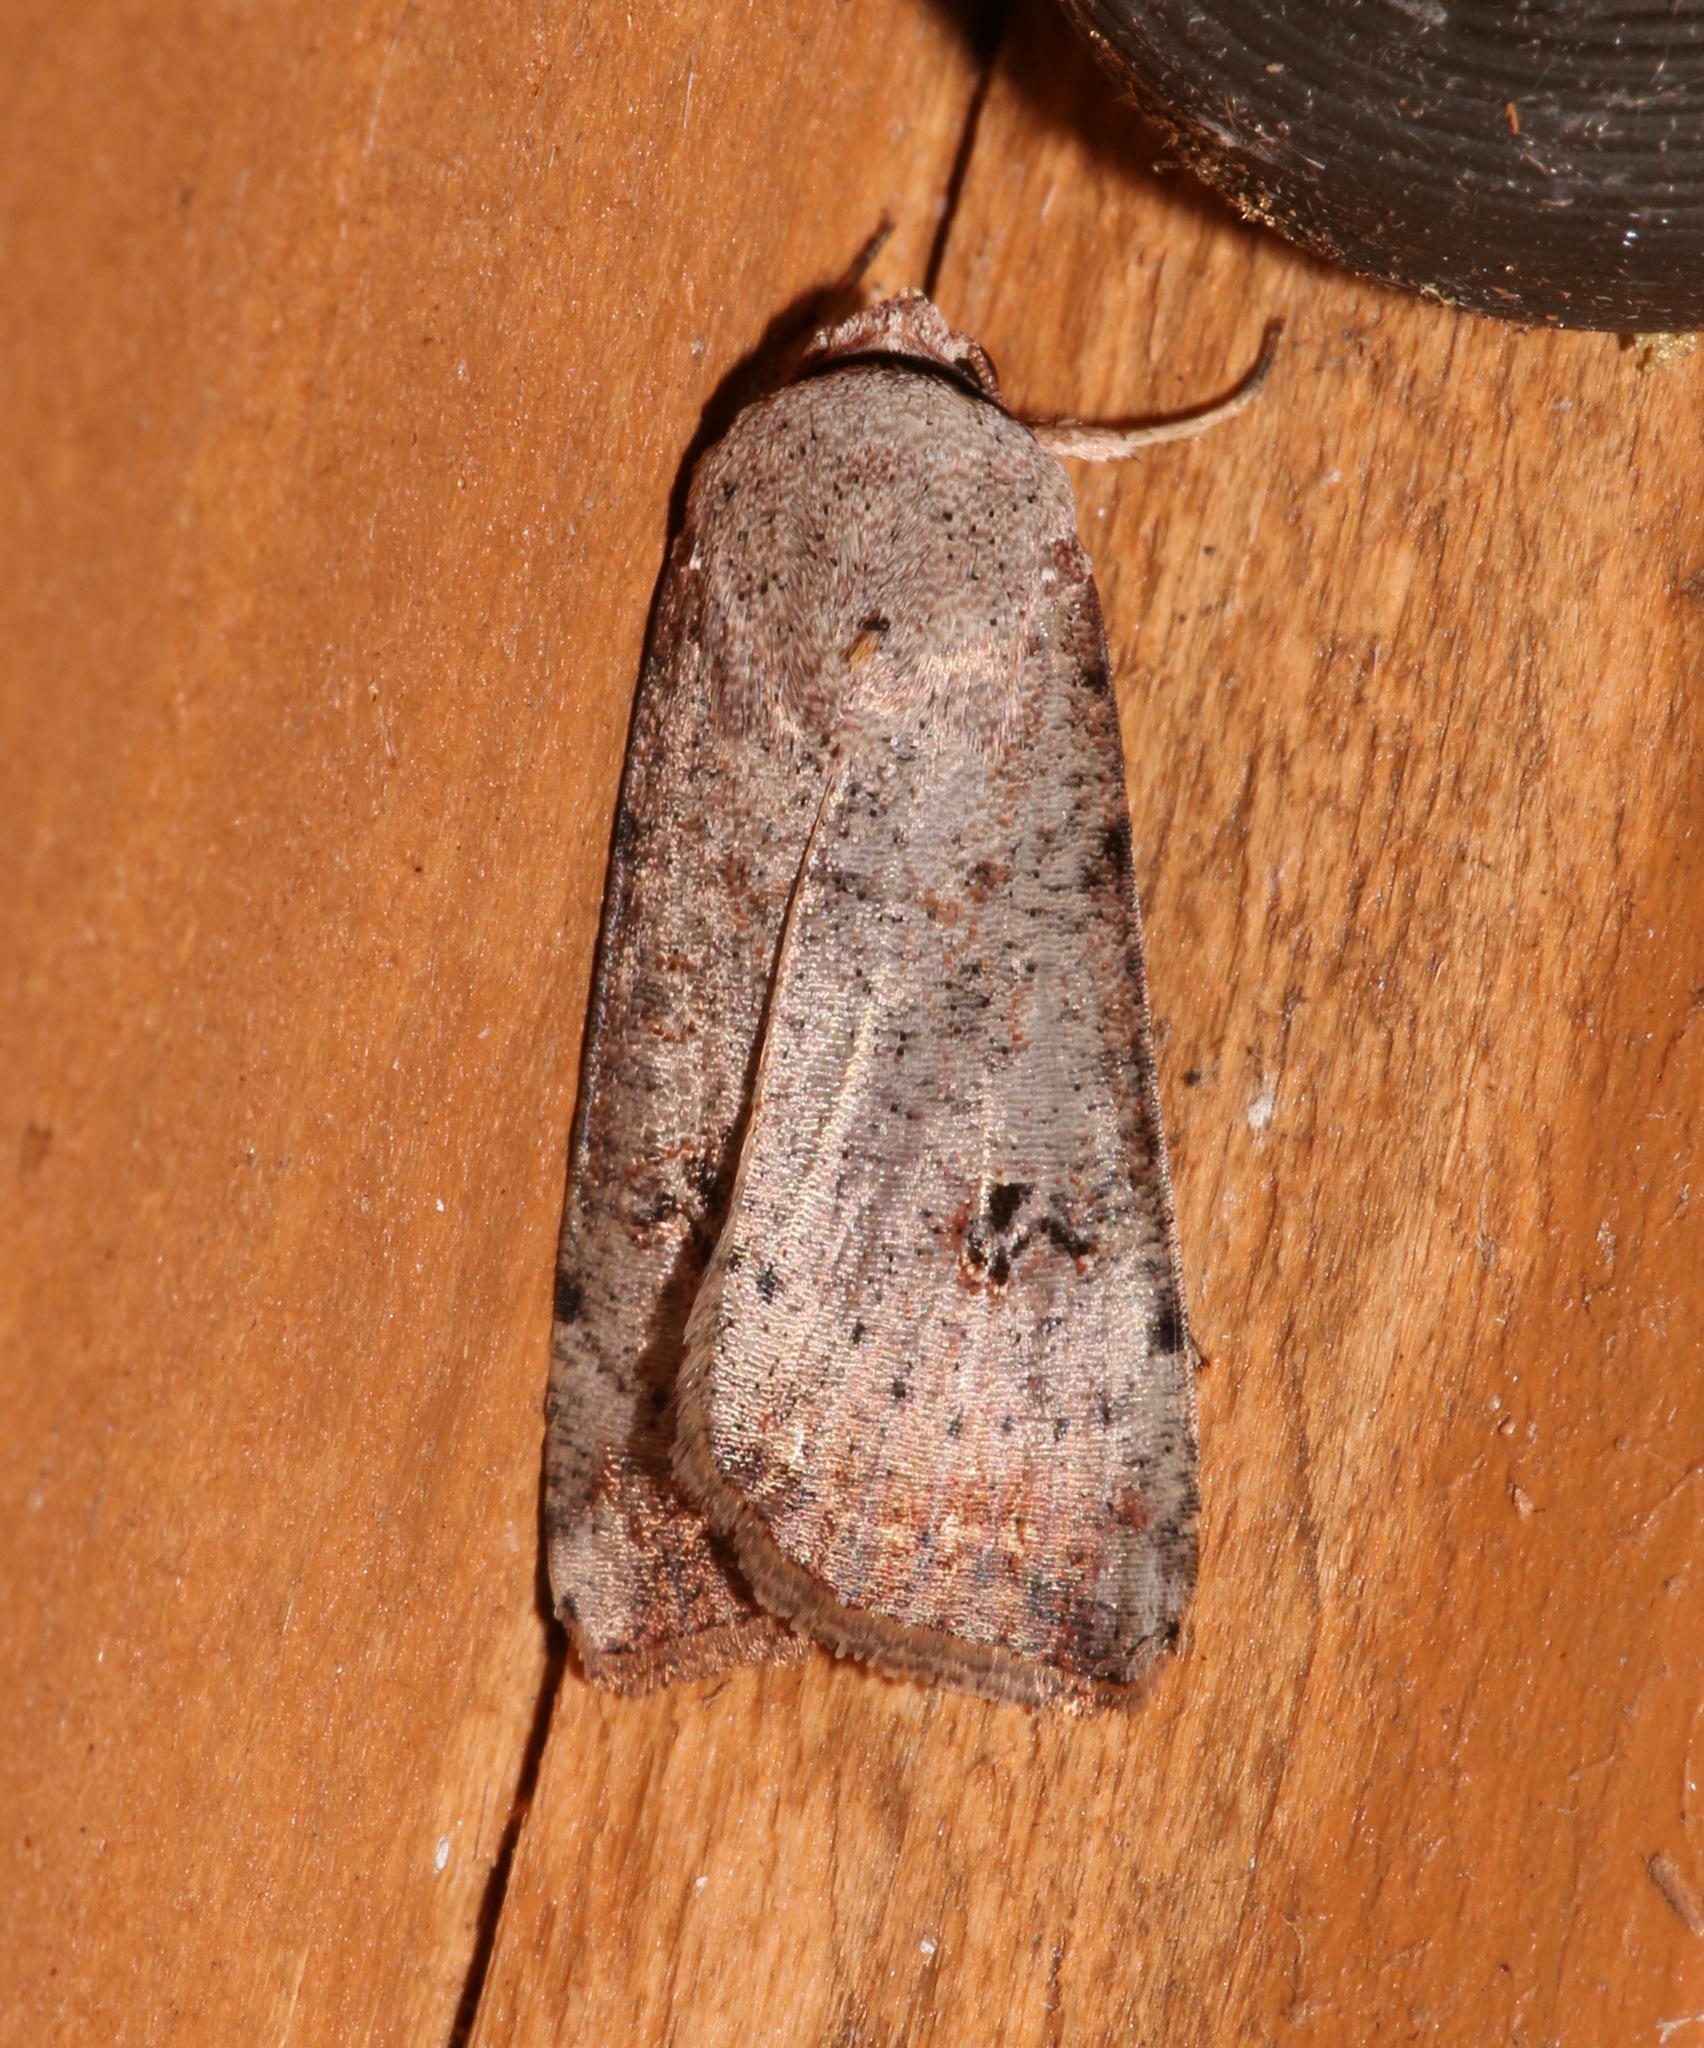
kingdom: Animalia
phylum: Arthropoda
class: Insecta
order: Lepidoptera
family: Noctuidae
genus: Anicla
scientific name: Anicla infecta
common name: Green cutworm
